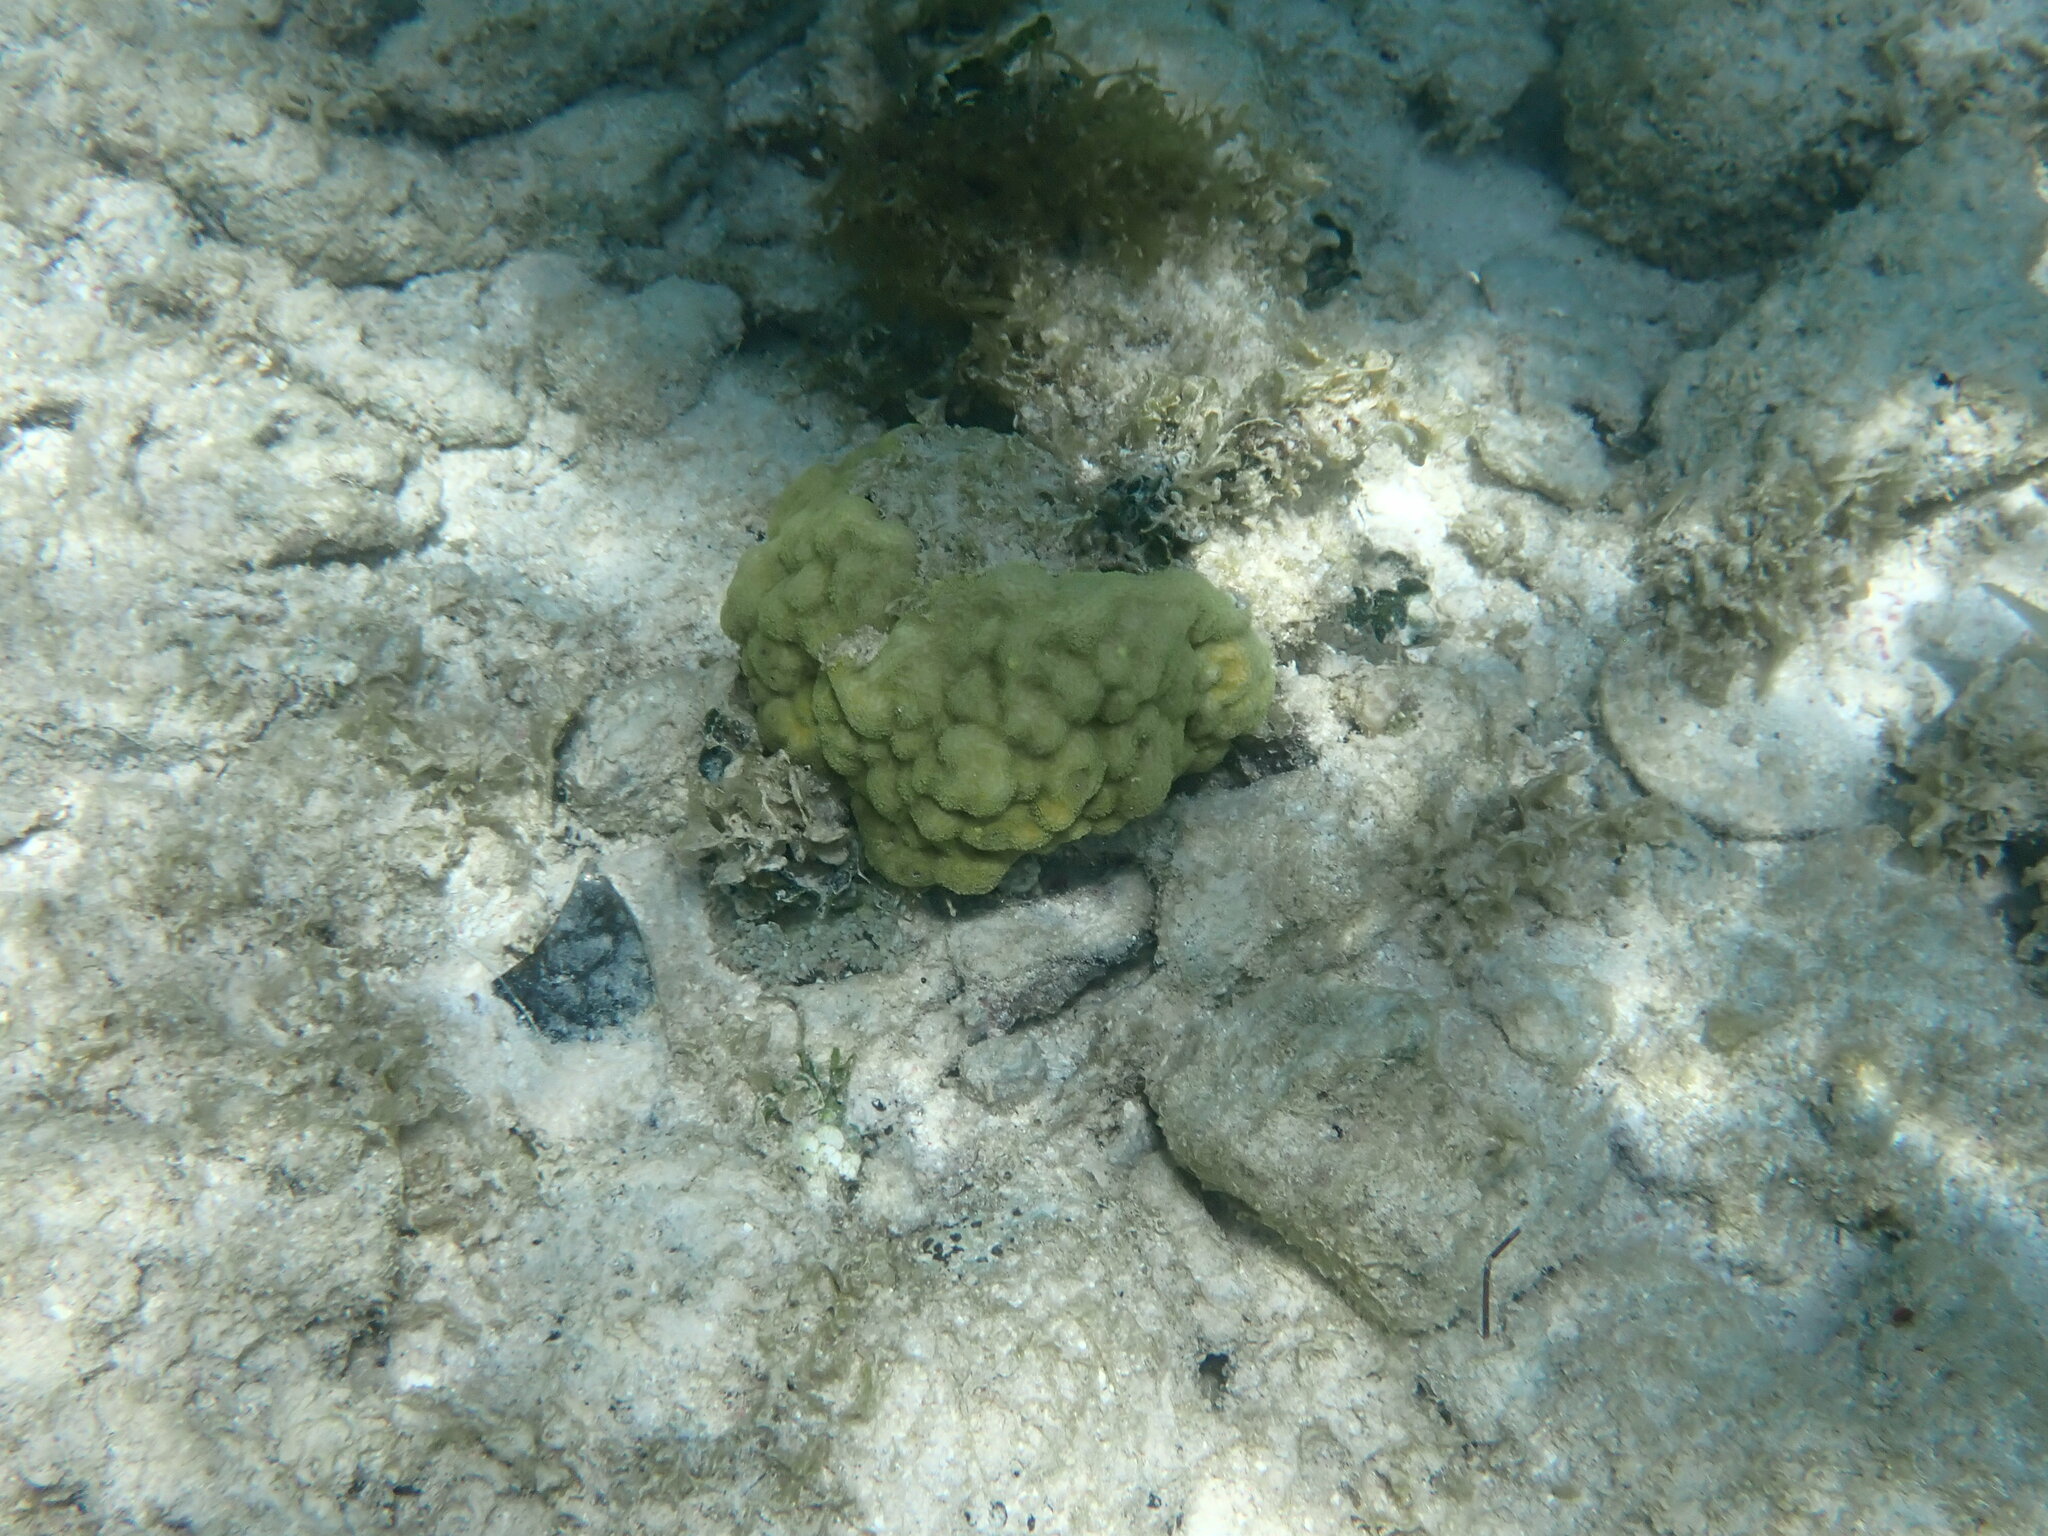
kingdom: Animalia
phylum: Cnidaria
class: Anthozoa
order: Scleractinia
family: Poritidae
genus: Porites
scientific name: Porites astreoides
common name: Mustard hill coral
